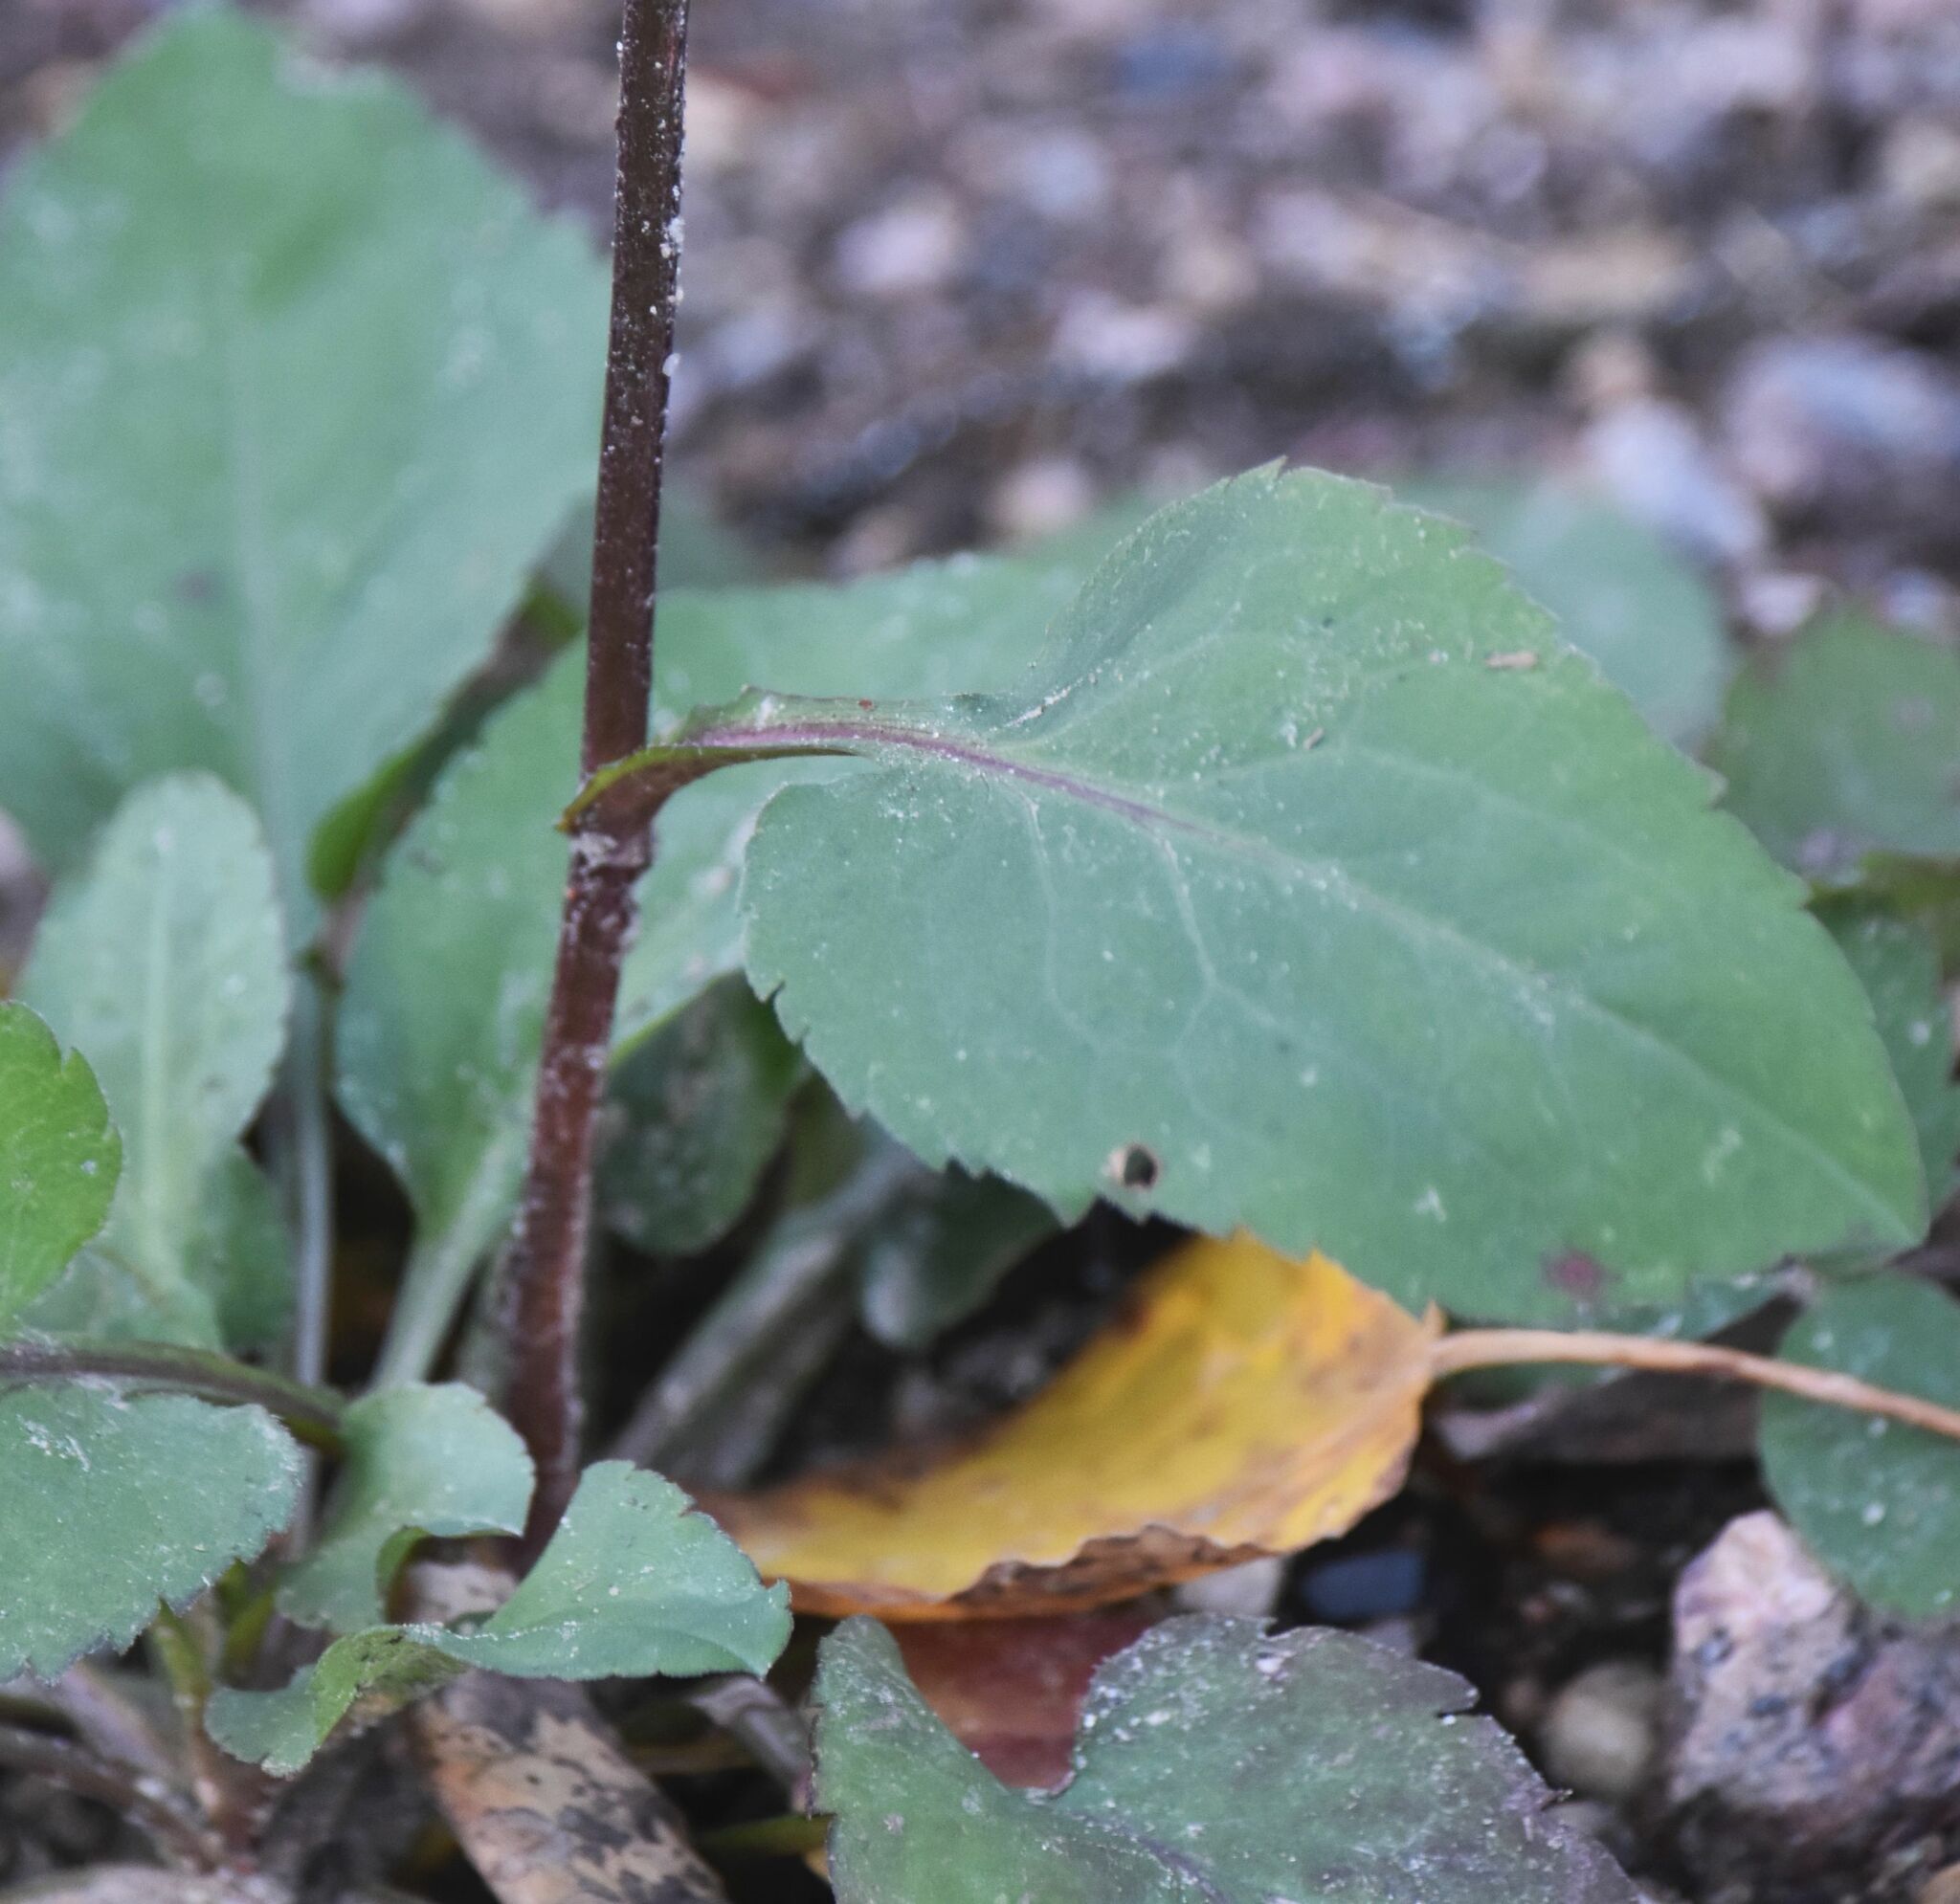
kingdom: Plantae
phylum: Tracheophyta
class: Magnoliopsida
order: Asterales
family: Asteraceae
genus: Symphyotrichum
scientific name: Symphyotrichum ciliolatum
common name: Fringed blue aster
